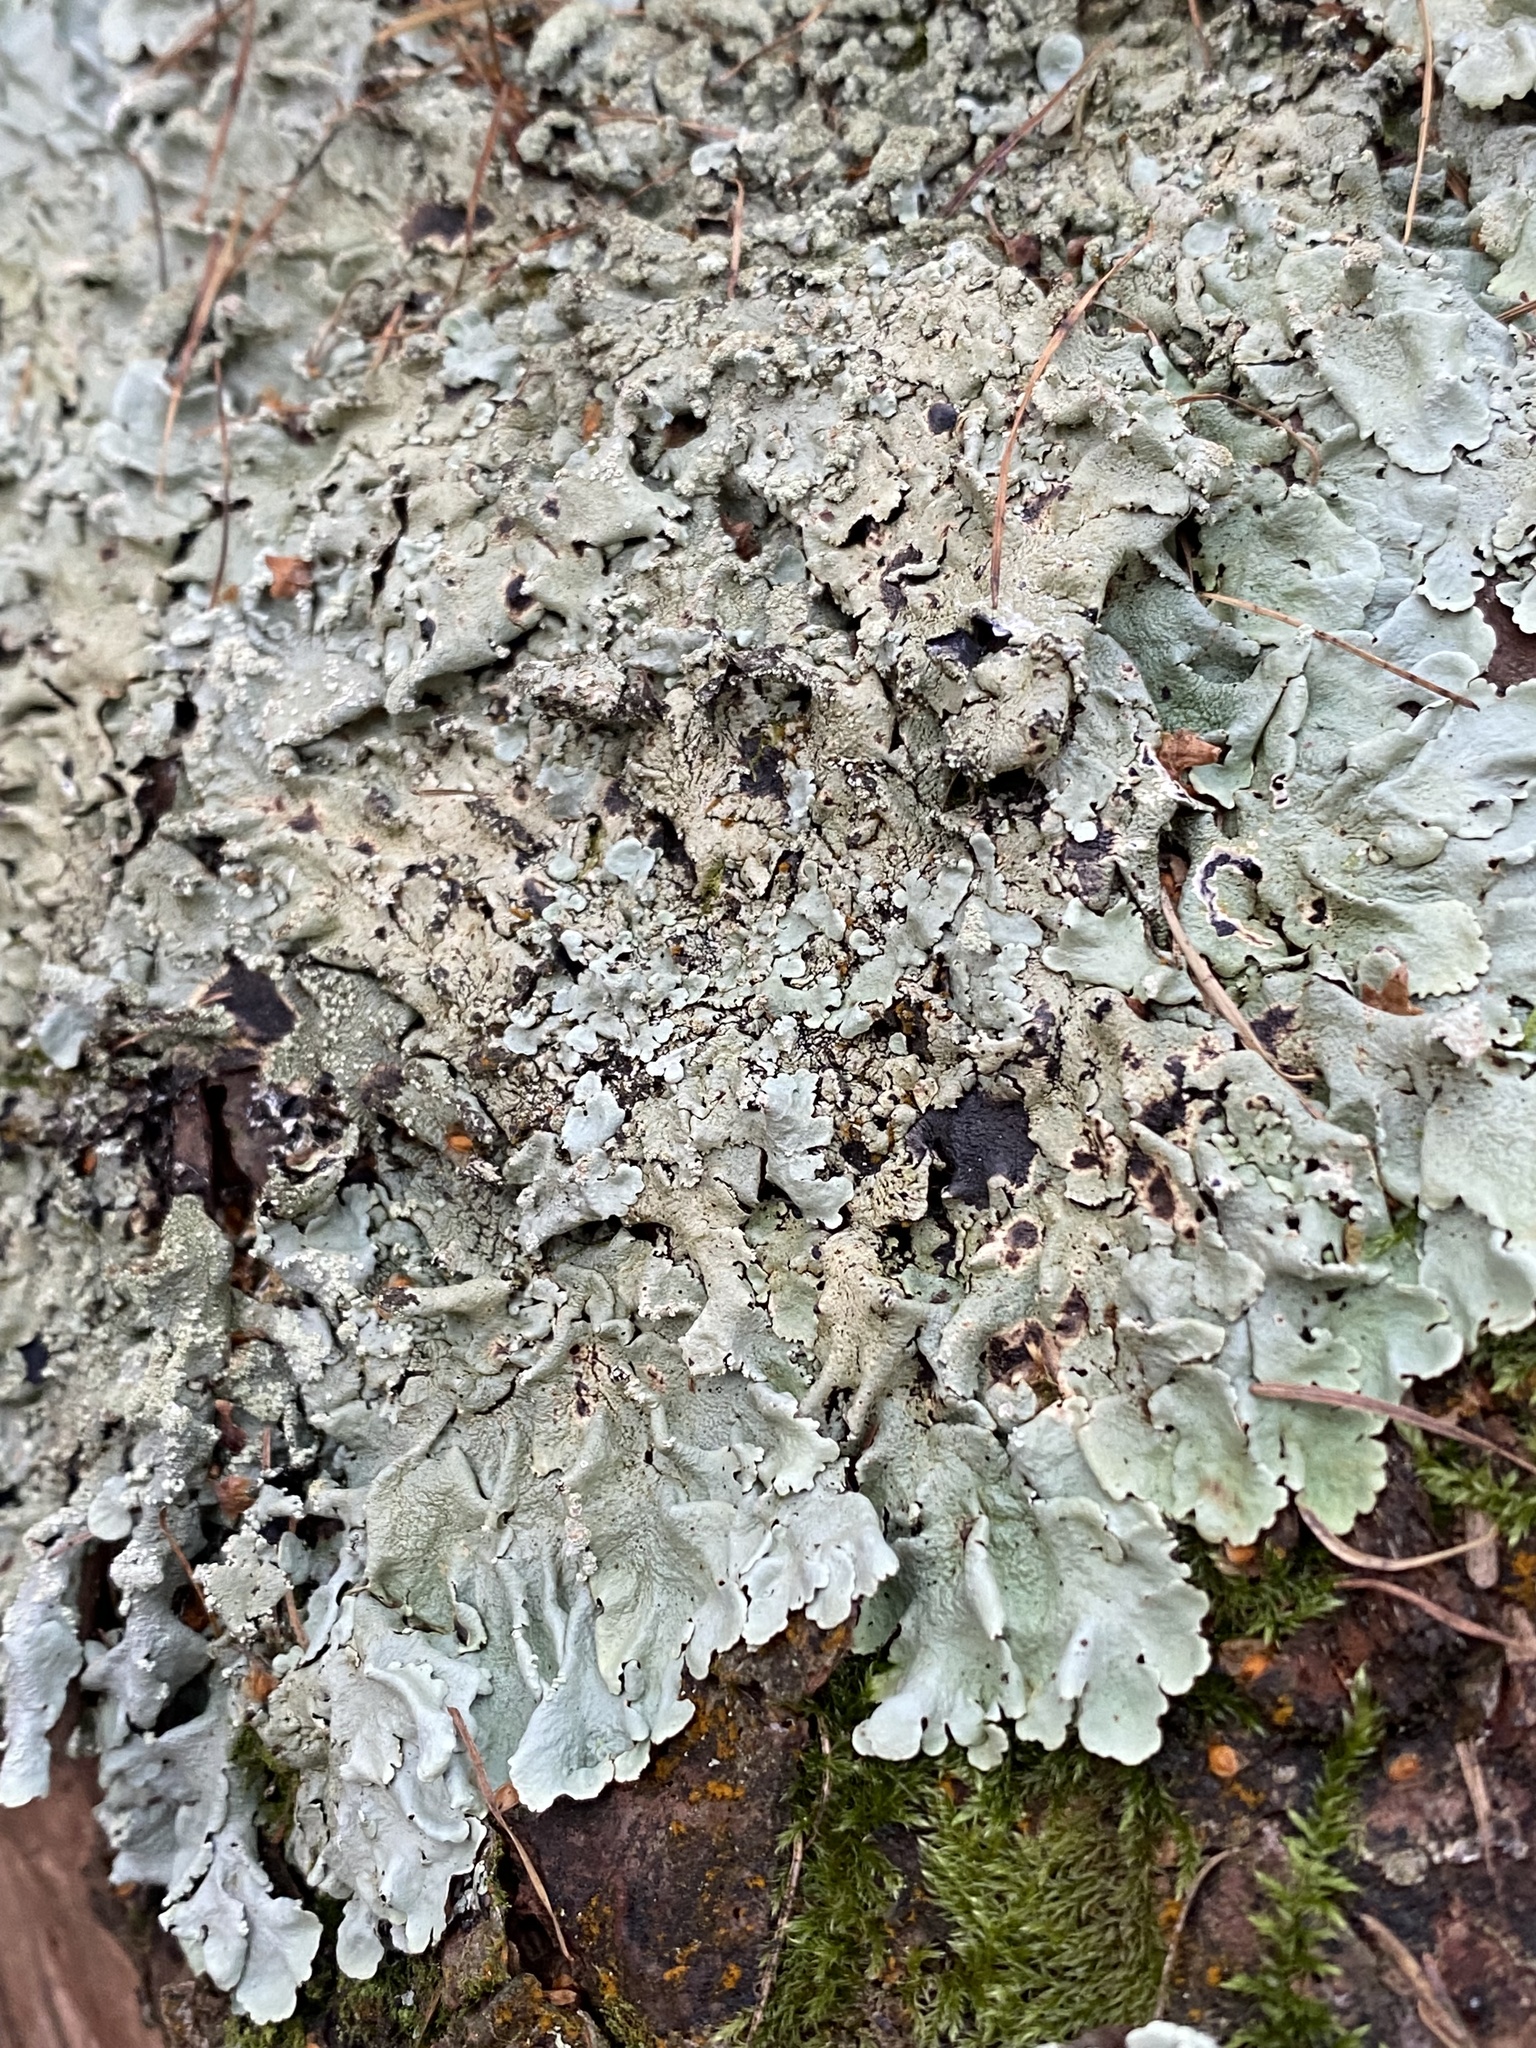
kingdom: Fungi
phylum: Ascomycota
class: Lecanoromycetes
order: Lecanorales
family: Parmeliaceae
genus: Flavoparmelia
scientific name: Flavoparmelia caperata
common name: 40-mile per hour lichen
